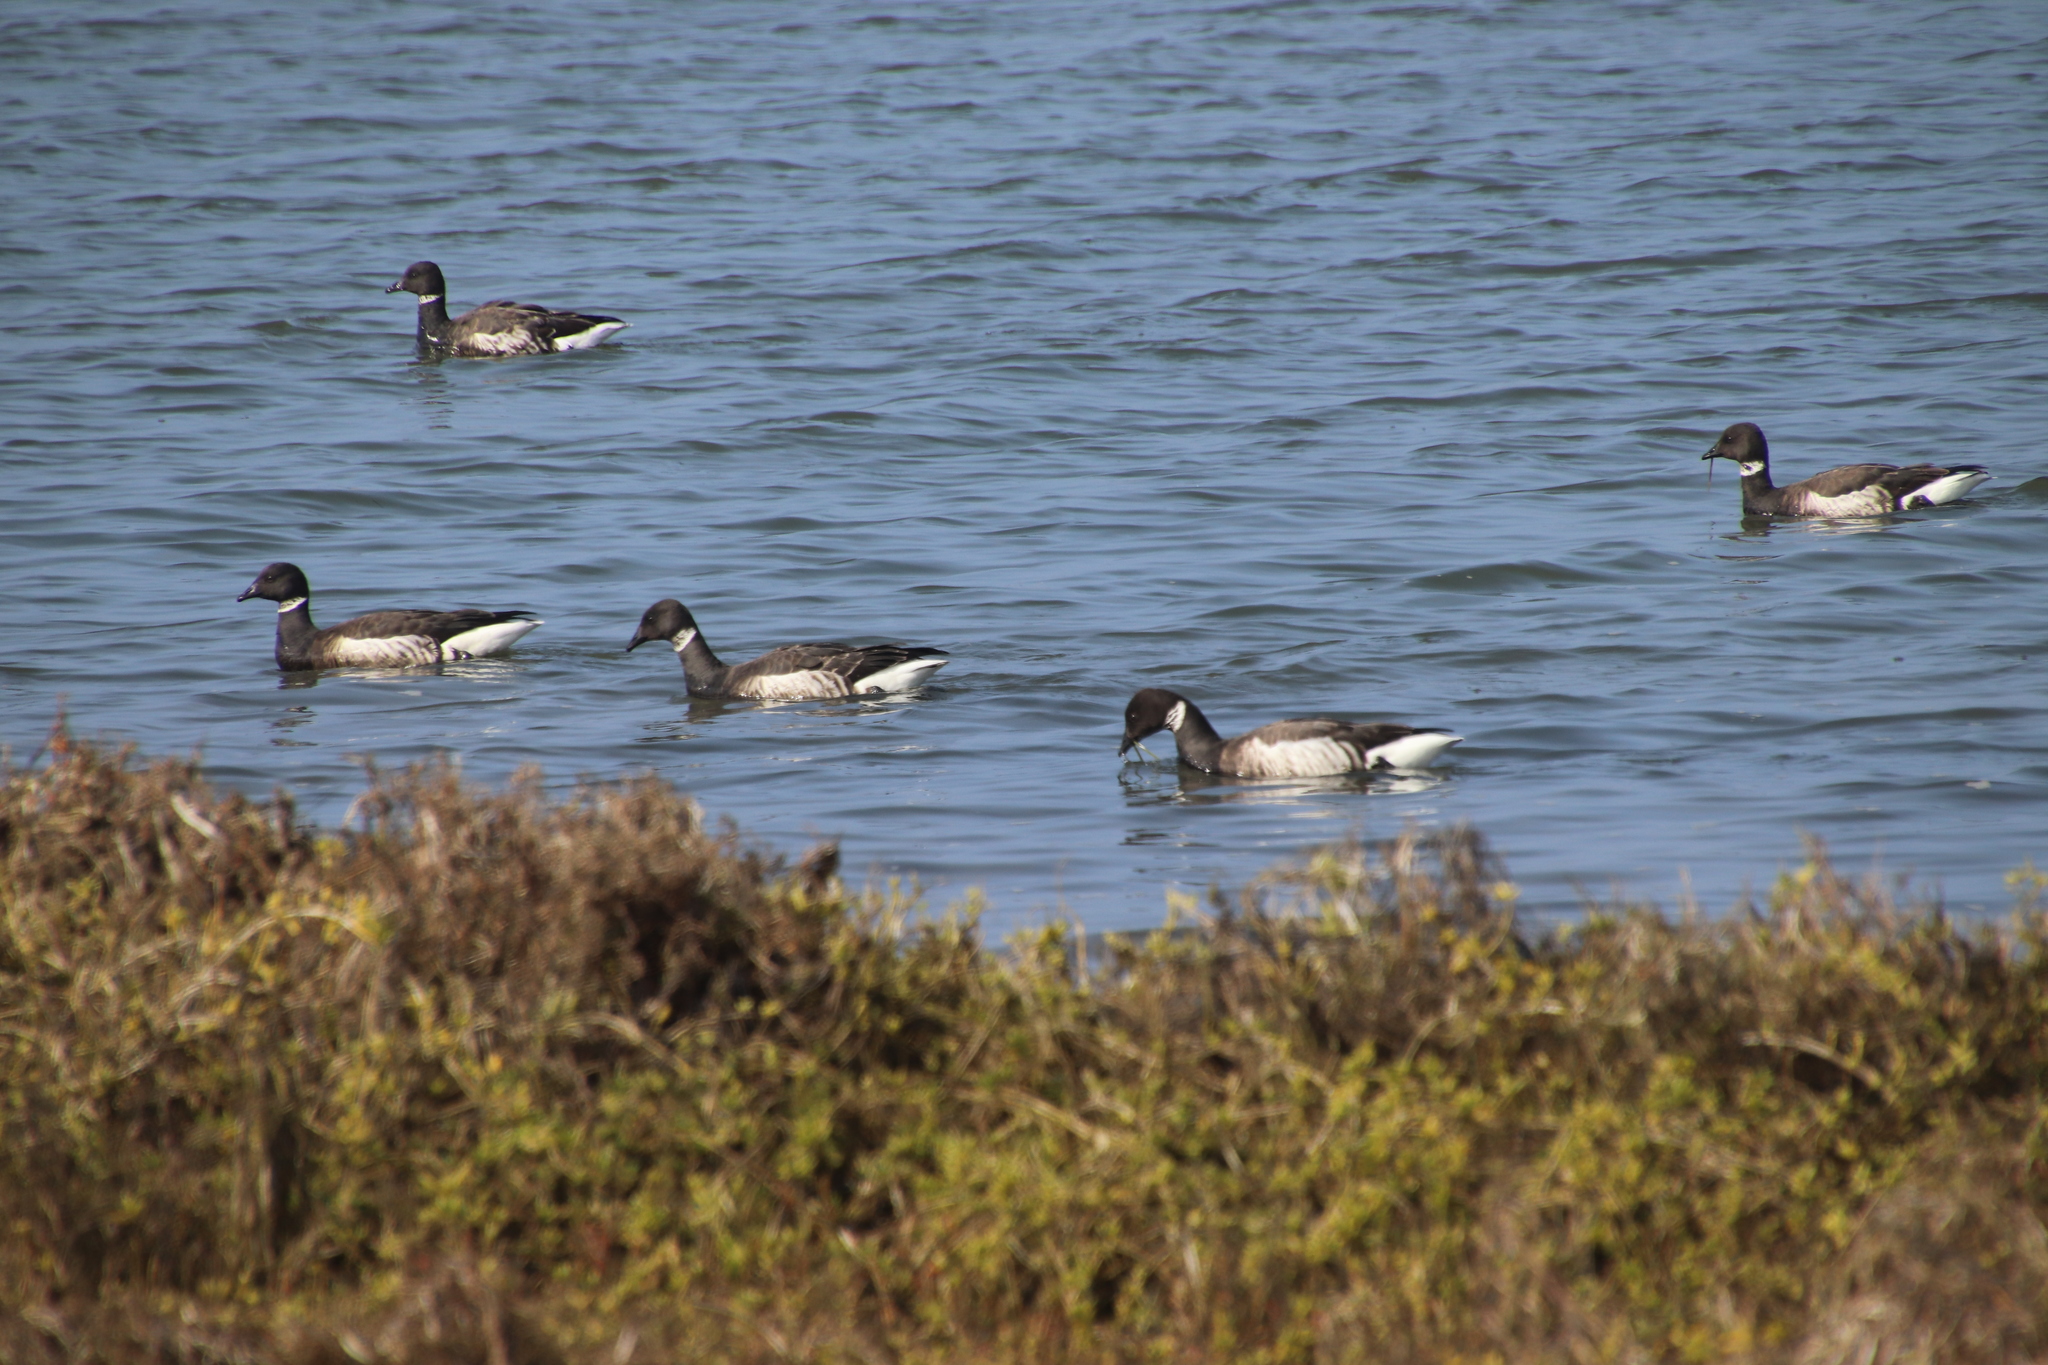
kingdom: Animalia
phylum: Chordata
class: Aves
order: Anseriformes
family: Anatidae
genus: Branta
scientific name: Branta bernicla
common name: Brant goose
